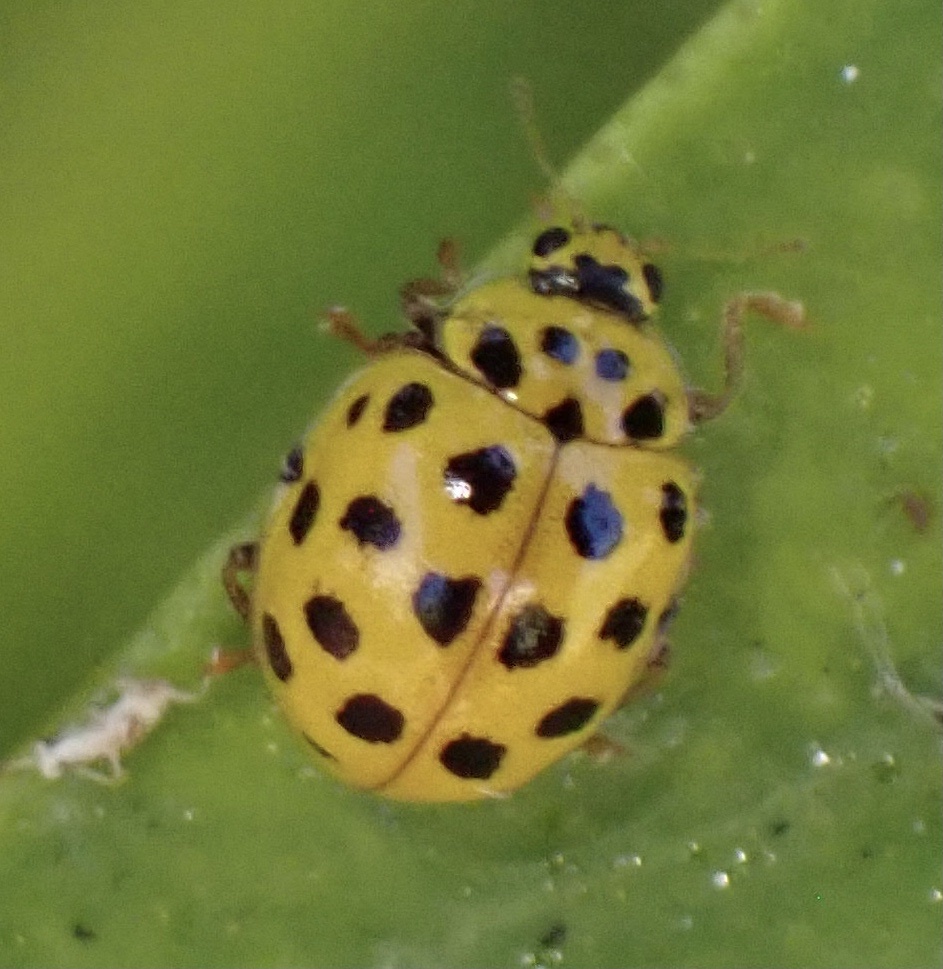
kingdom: Animalia
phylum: Arthropoda
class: Insecta
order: Coleoptera
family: Coccinellidae
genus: Psyllobora
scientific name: Psyllobora vigintiduopunctata
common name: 22-spot ladybird
